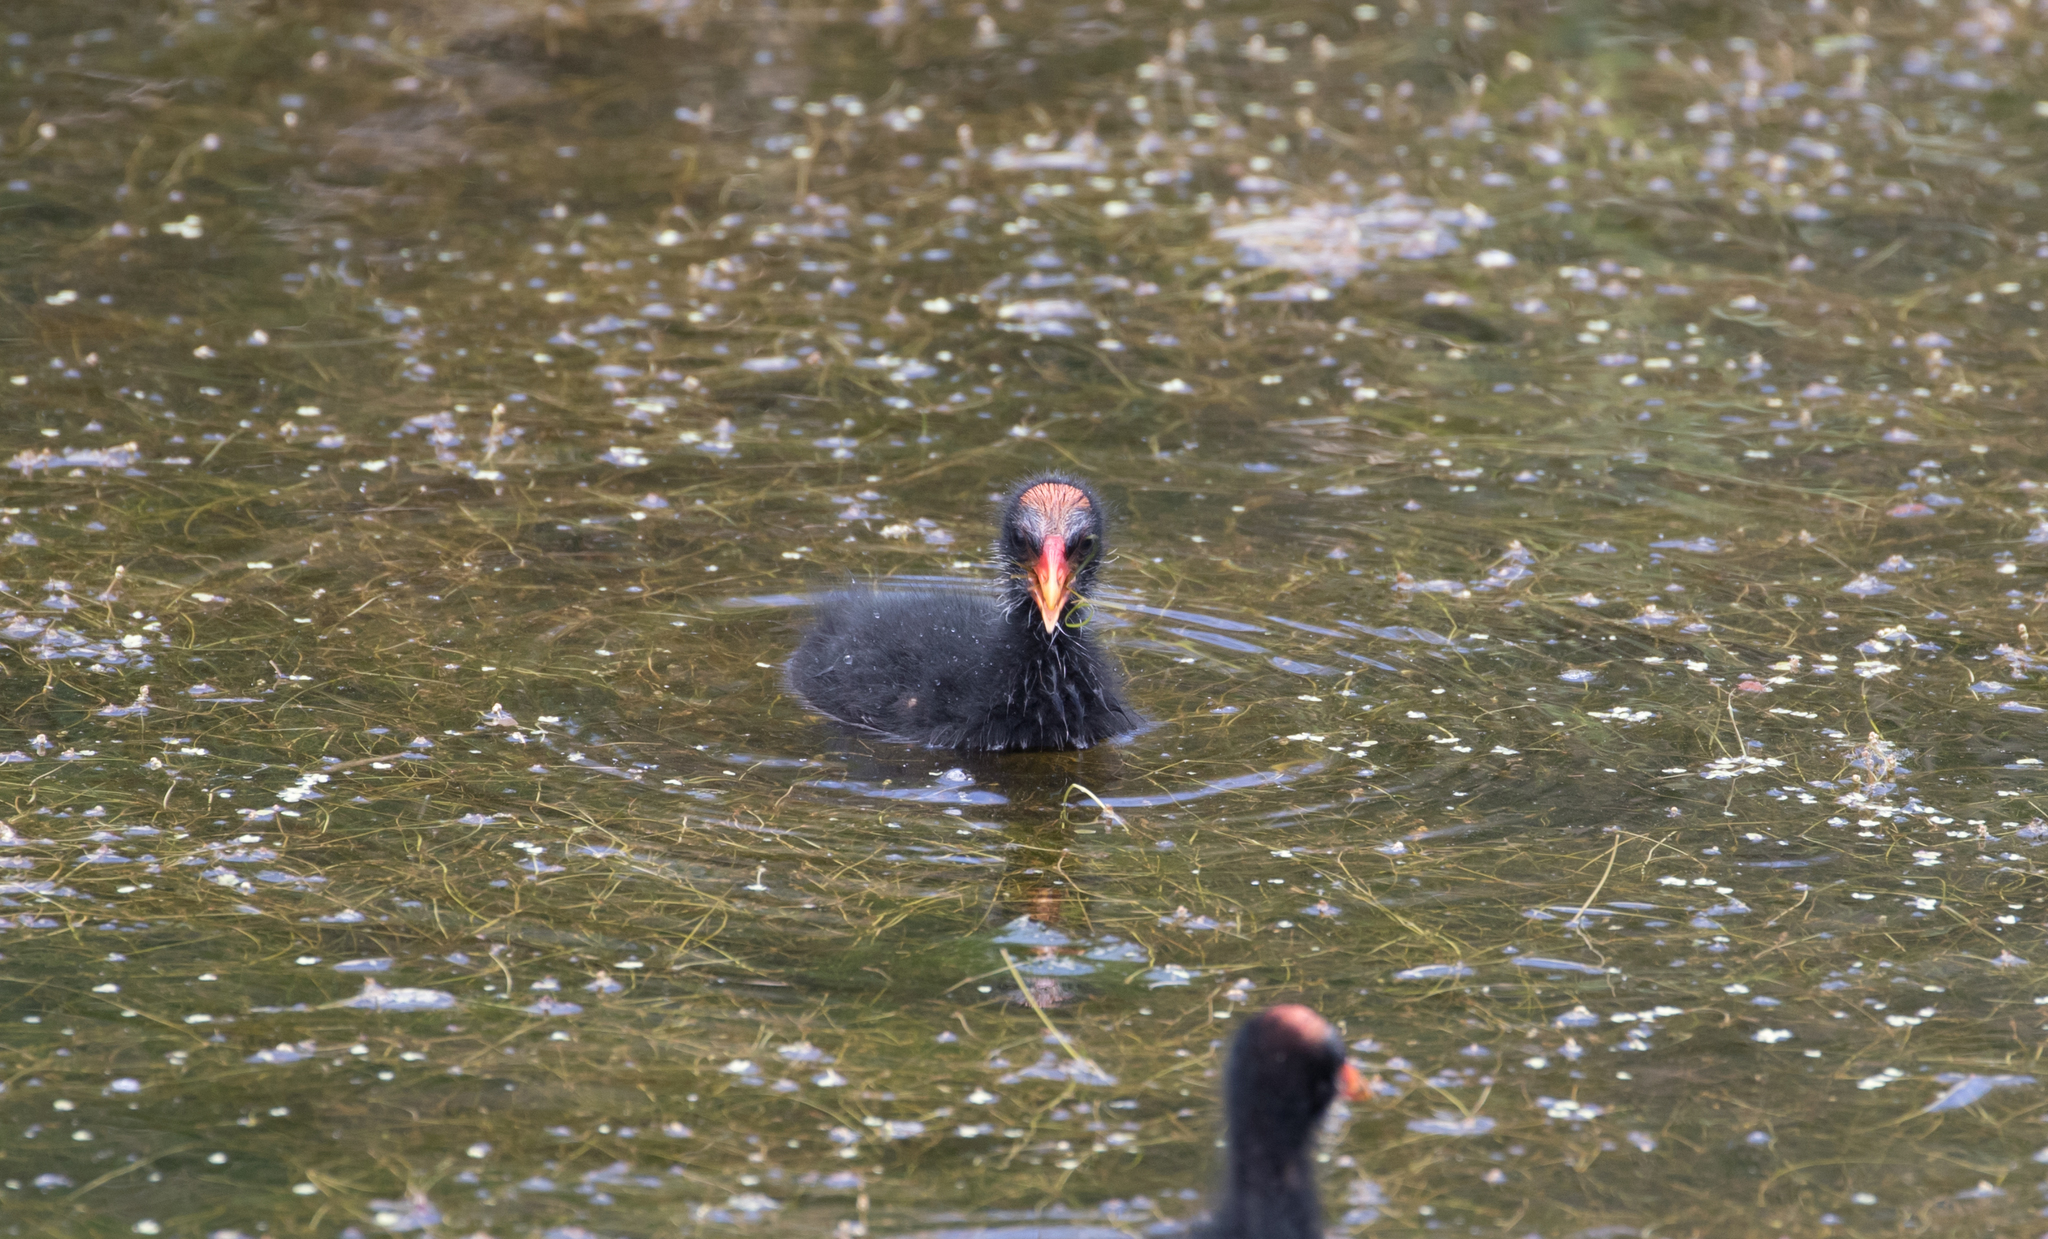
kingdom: Animalia
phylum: Chordata
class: Aves
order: Gruiformes
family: Rallidae
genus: Gallinula
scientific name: Gallinula chloropus
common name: Common moorhen
